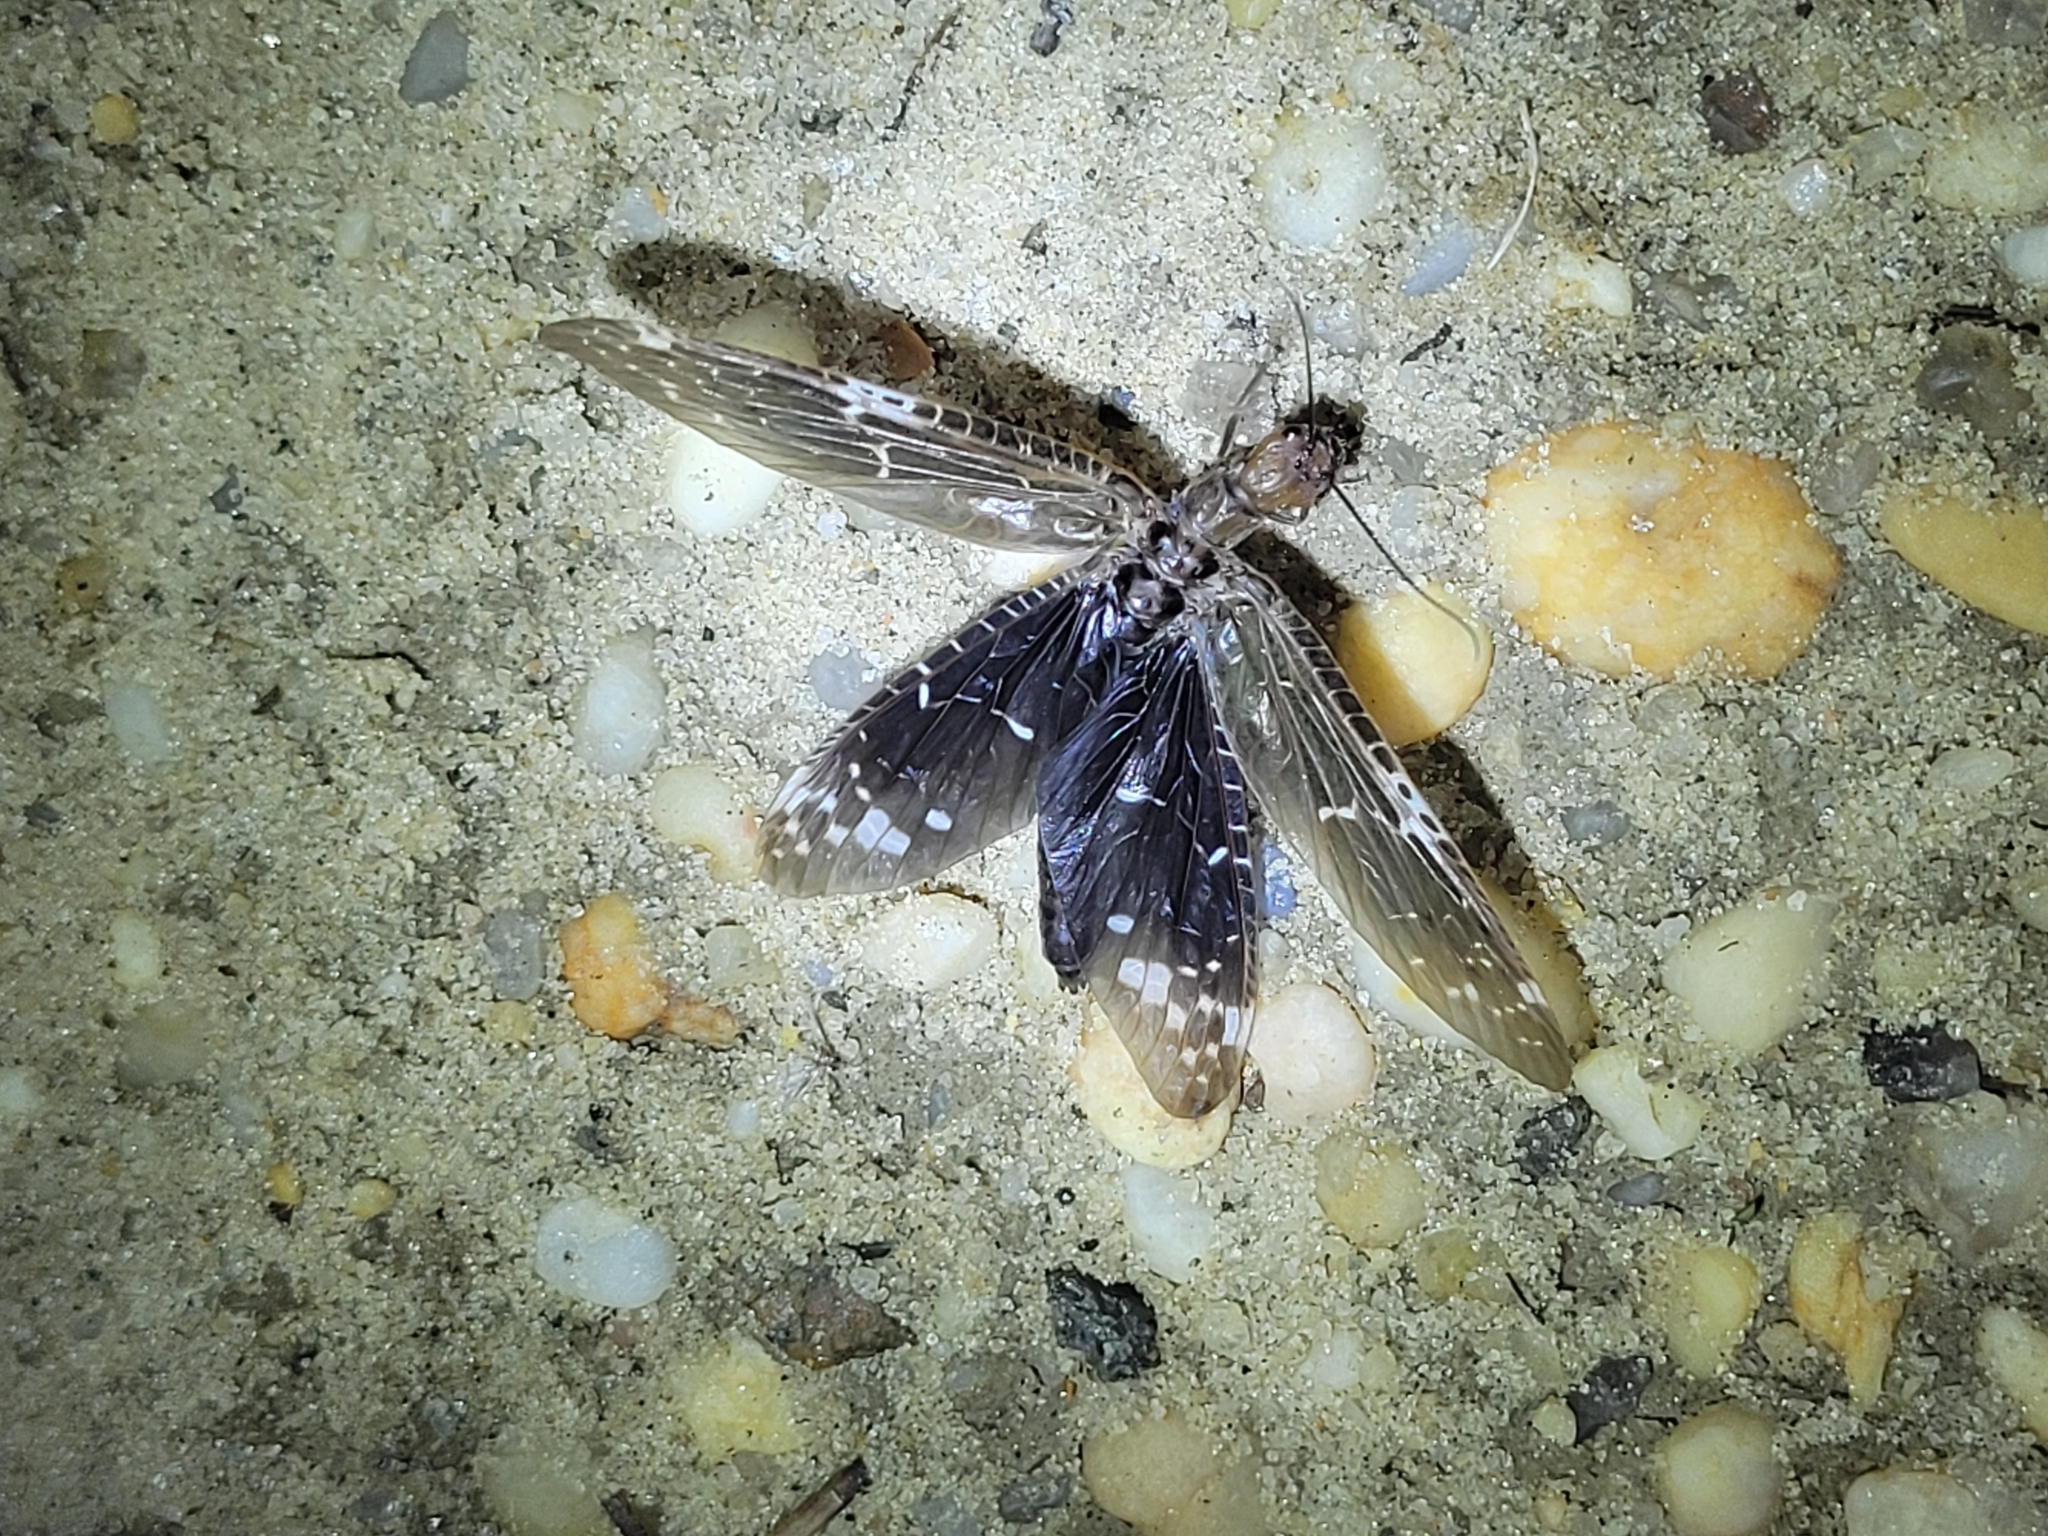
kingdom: Animalia
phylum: Arthropoda
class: Insecta
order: Megaloptera
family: Corydalidae
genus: Nigronia
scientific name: Nigronia serricornis
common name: Serrate dark fishfly
